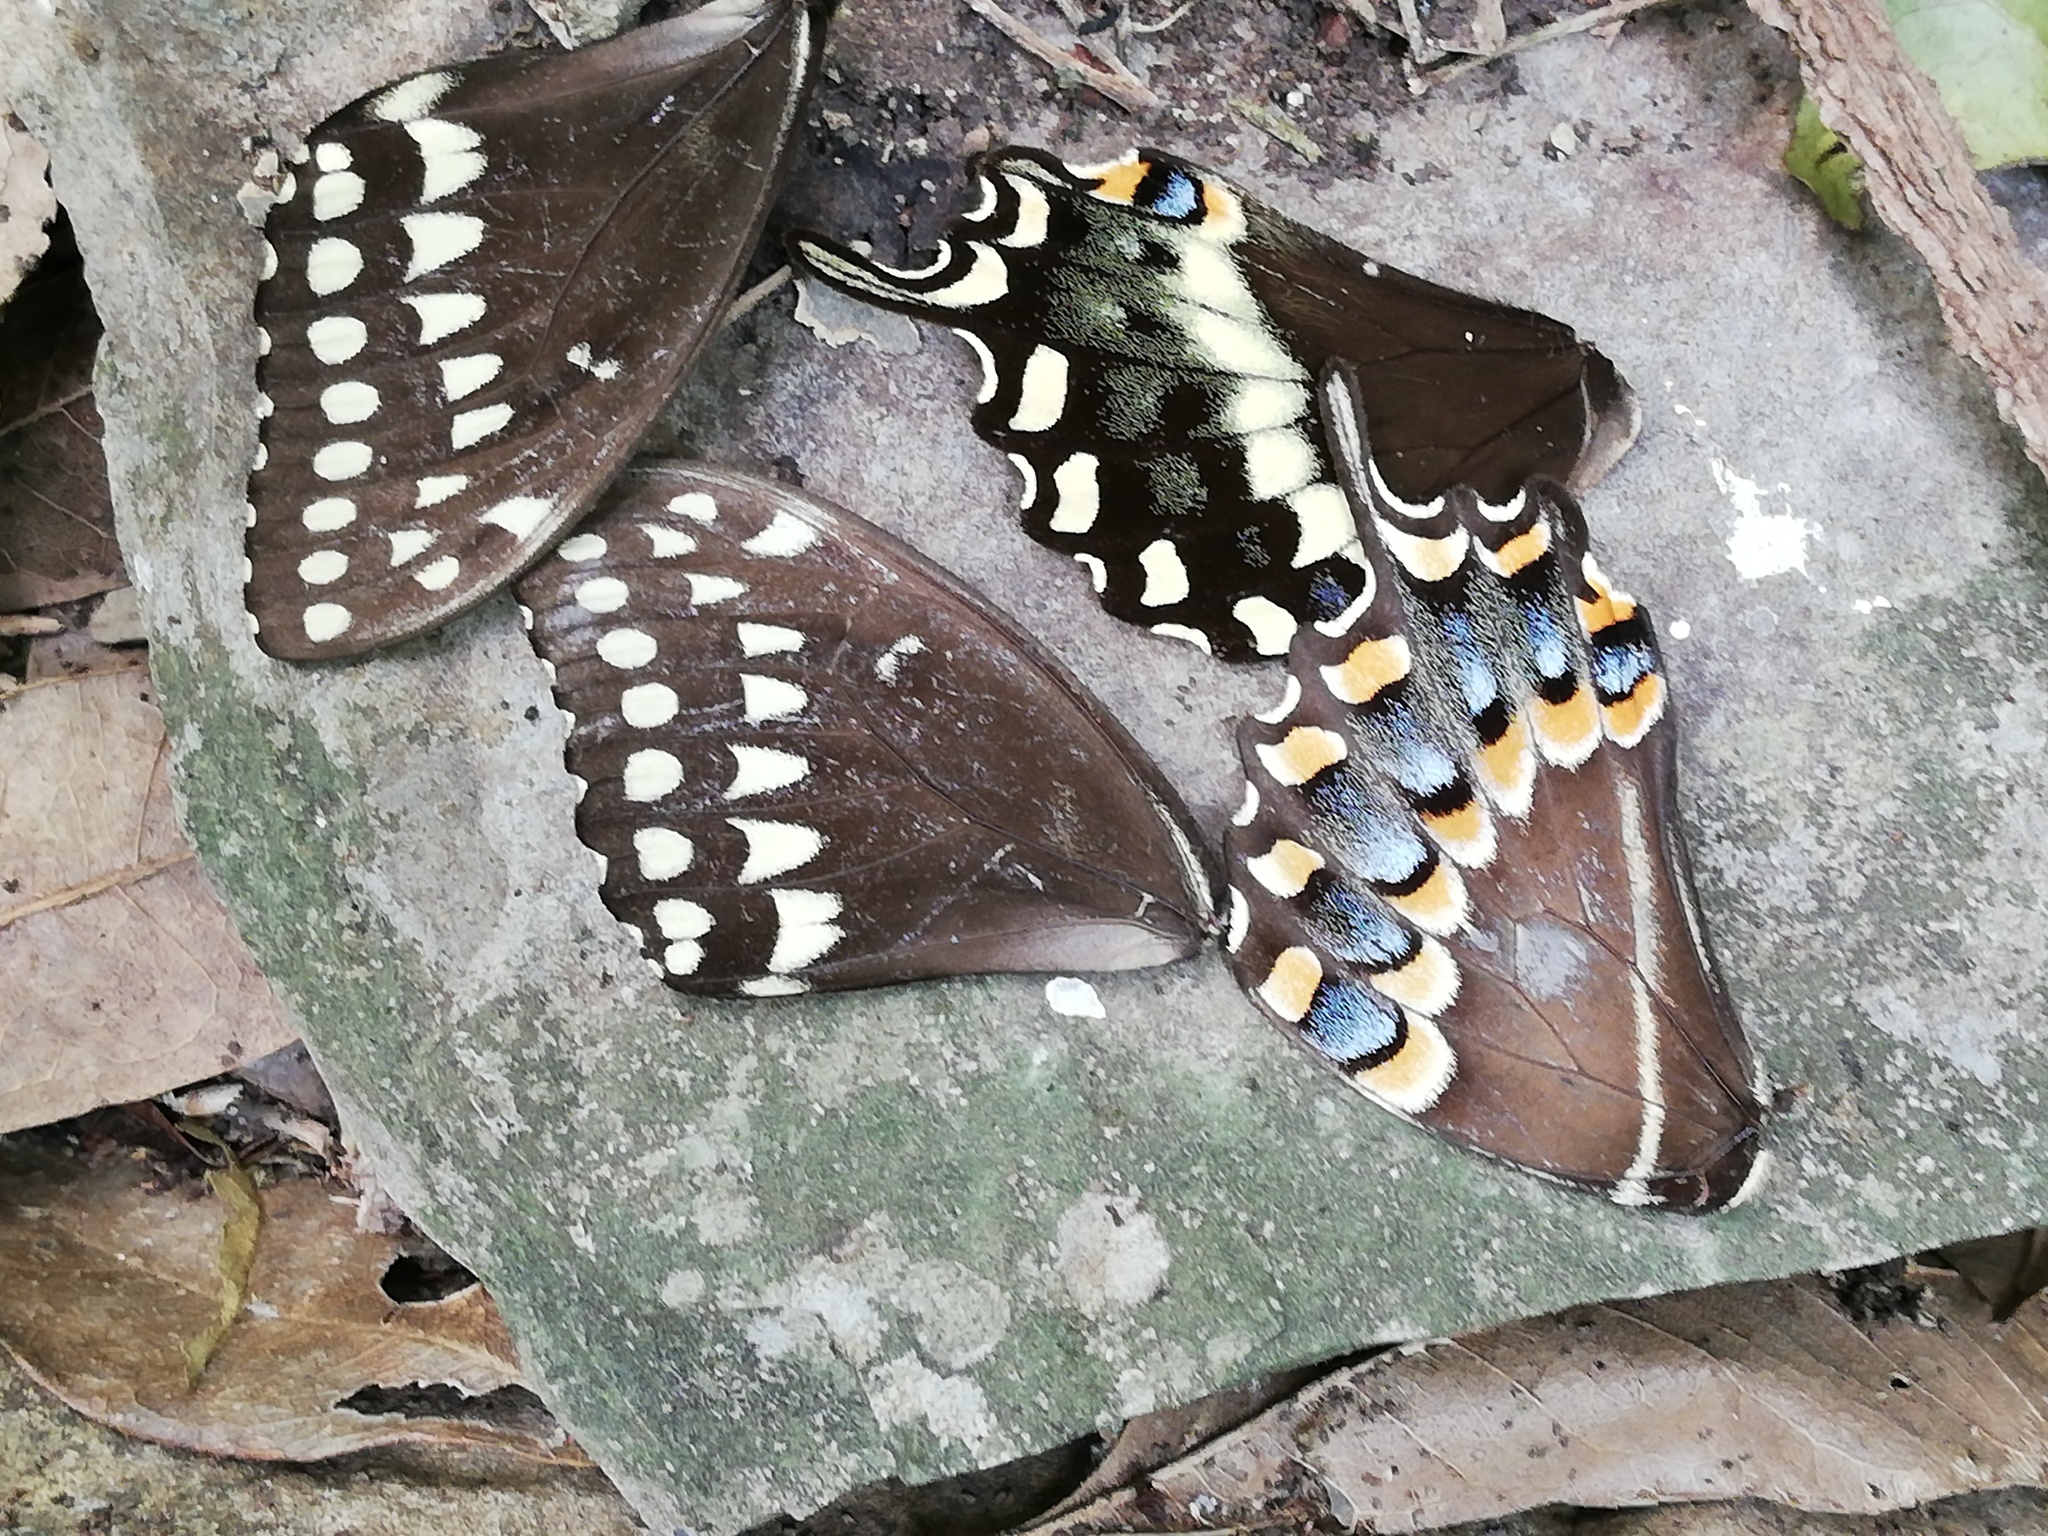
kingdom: Animalia
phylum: Arthropoda
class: Insecta
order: Lepidoptera
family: Papilionidae
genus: Papilio
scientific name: Papilio palamedes
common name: Palamedes swallowtail
